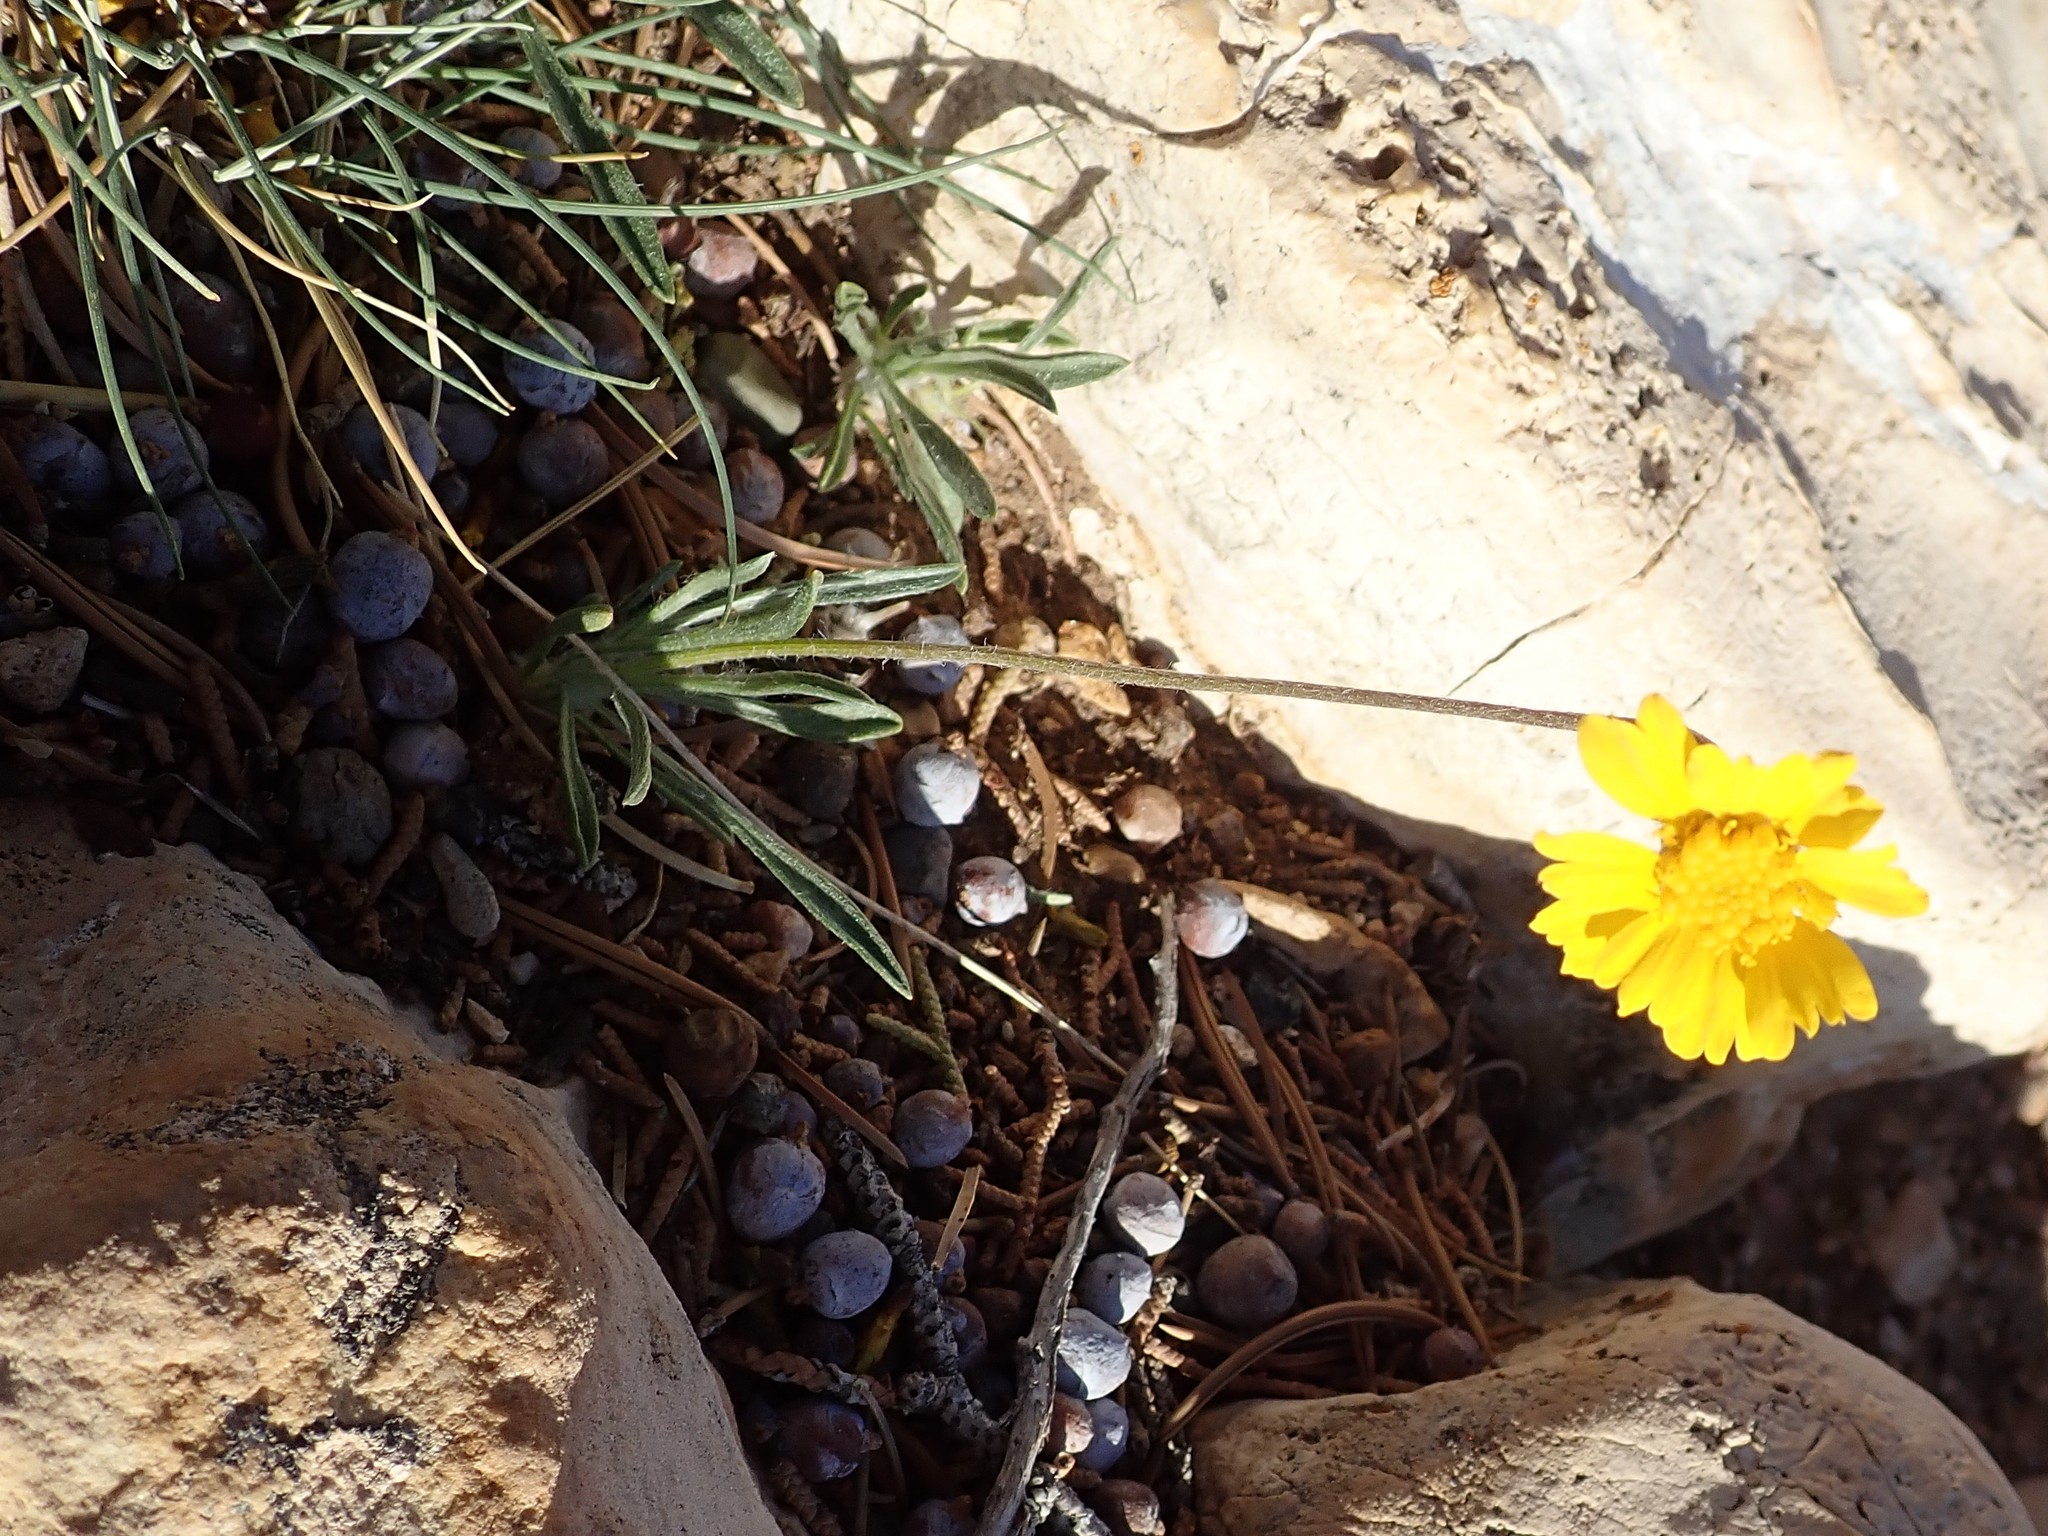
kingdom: Plantae
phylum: Tracheophyta
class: Magnoliopsida
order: Asterales
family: Asteraceae
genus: Tetraneuris
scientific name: Tetraneuris acaulis
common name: Butte marigold
